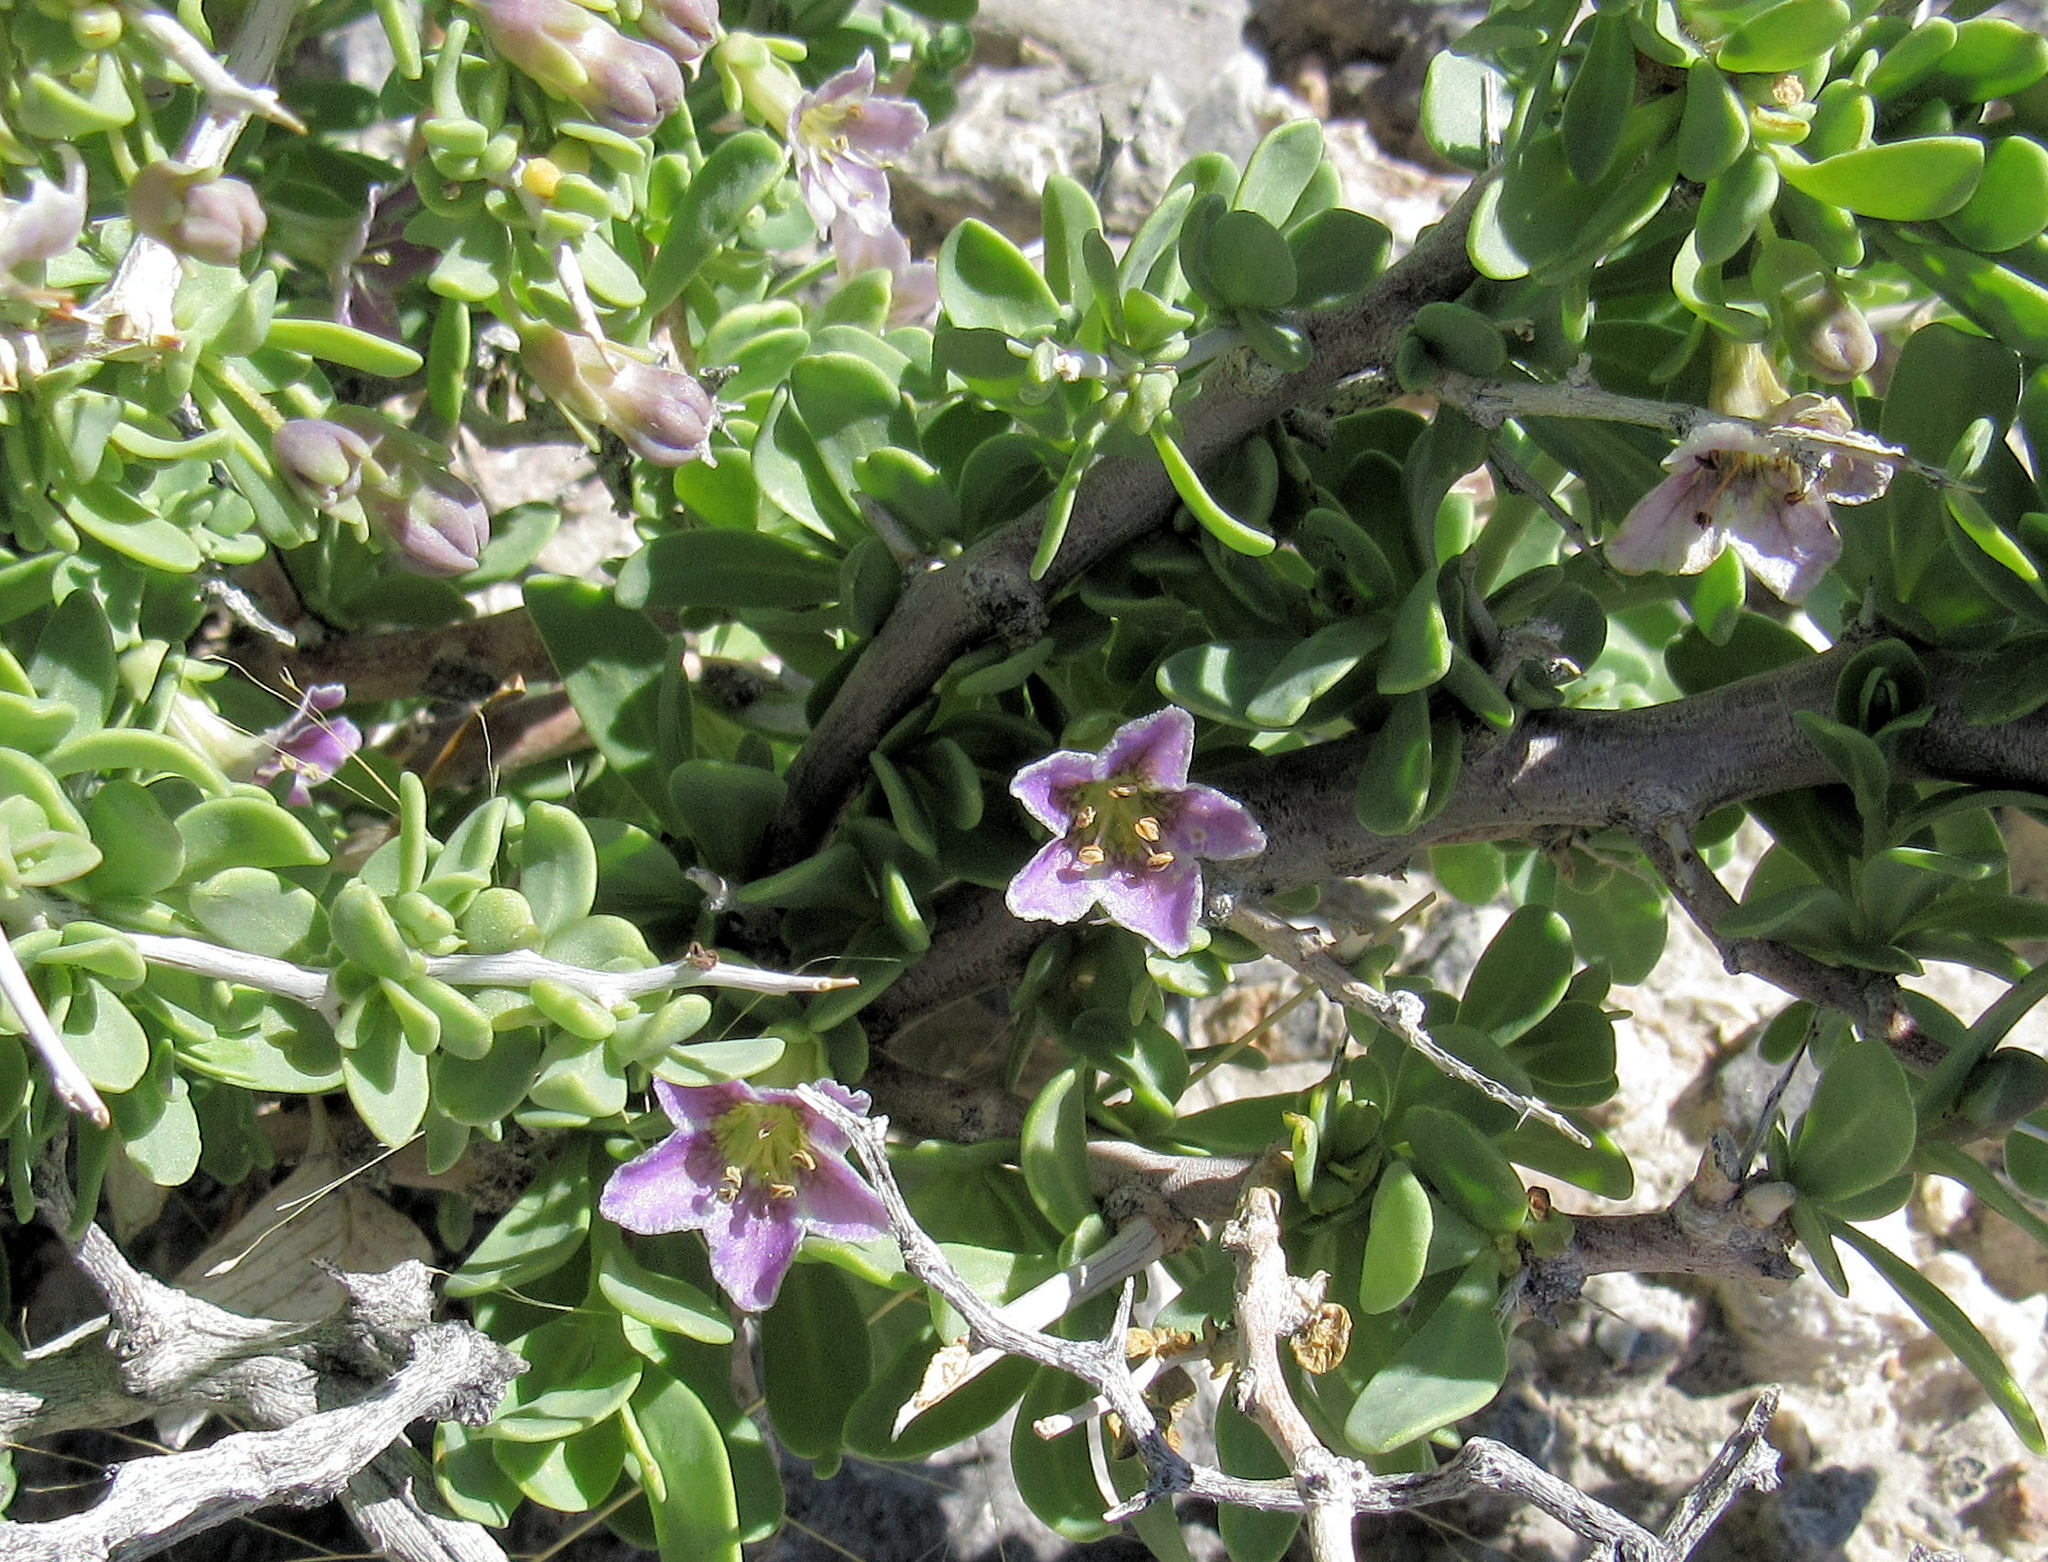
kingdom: Plantae
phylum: Tracheophyta
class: Magnoliopsida
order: Solanales
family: Solanaceae
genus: Lycium
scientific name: Lycium pallidum
